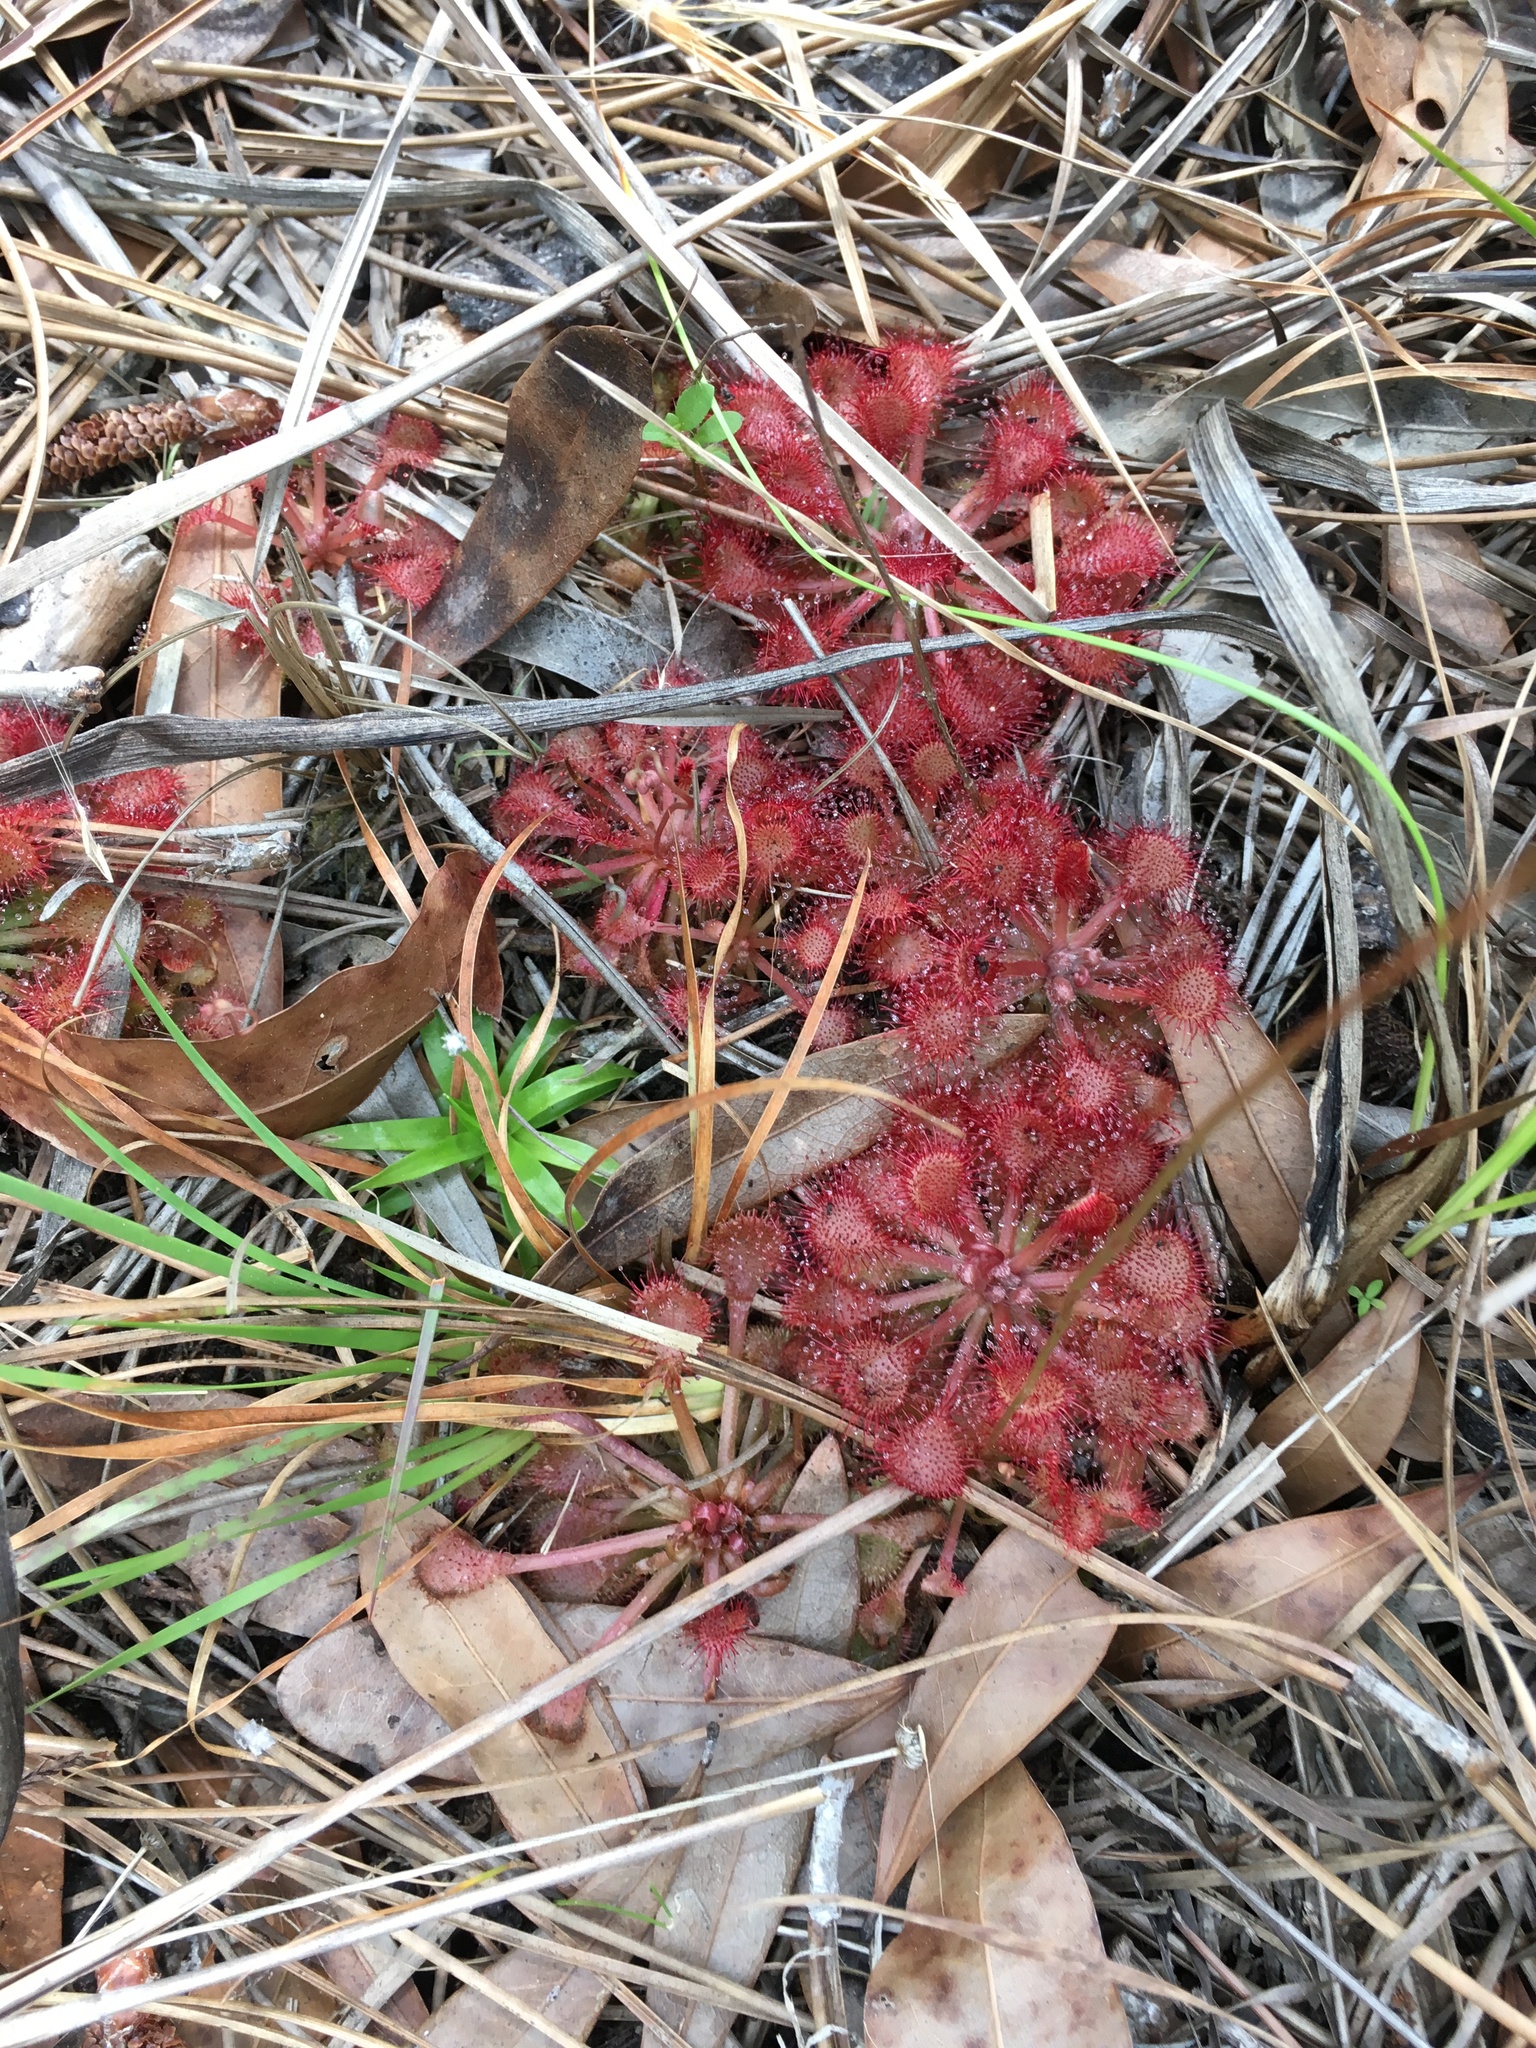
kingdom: Plantae
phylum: Tracheophyta
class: Magnoliopsida
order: Caryophyllales
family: Droseraceae
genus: Drosera
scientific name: Drosera capillaris
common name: Pink sundew
